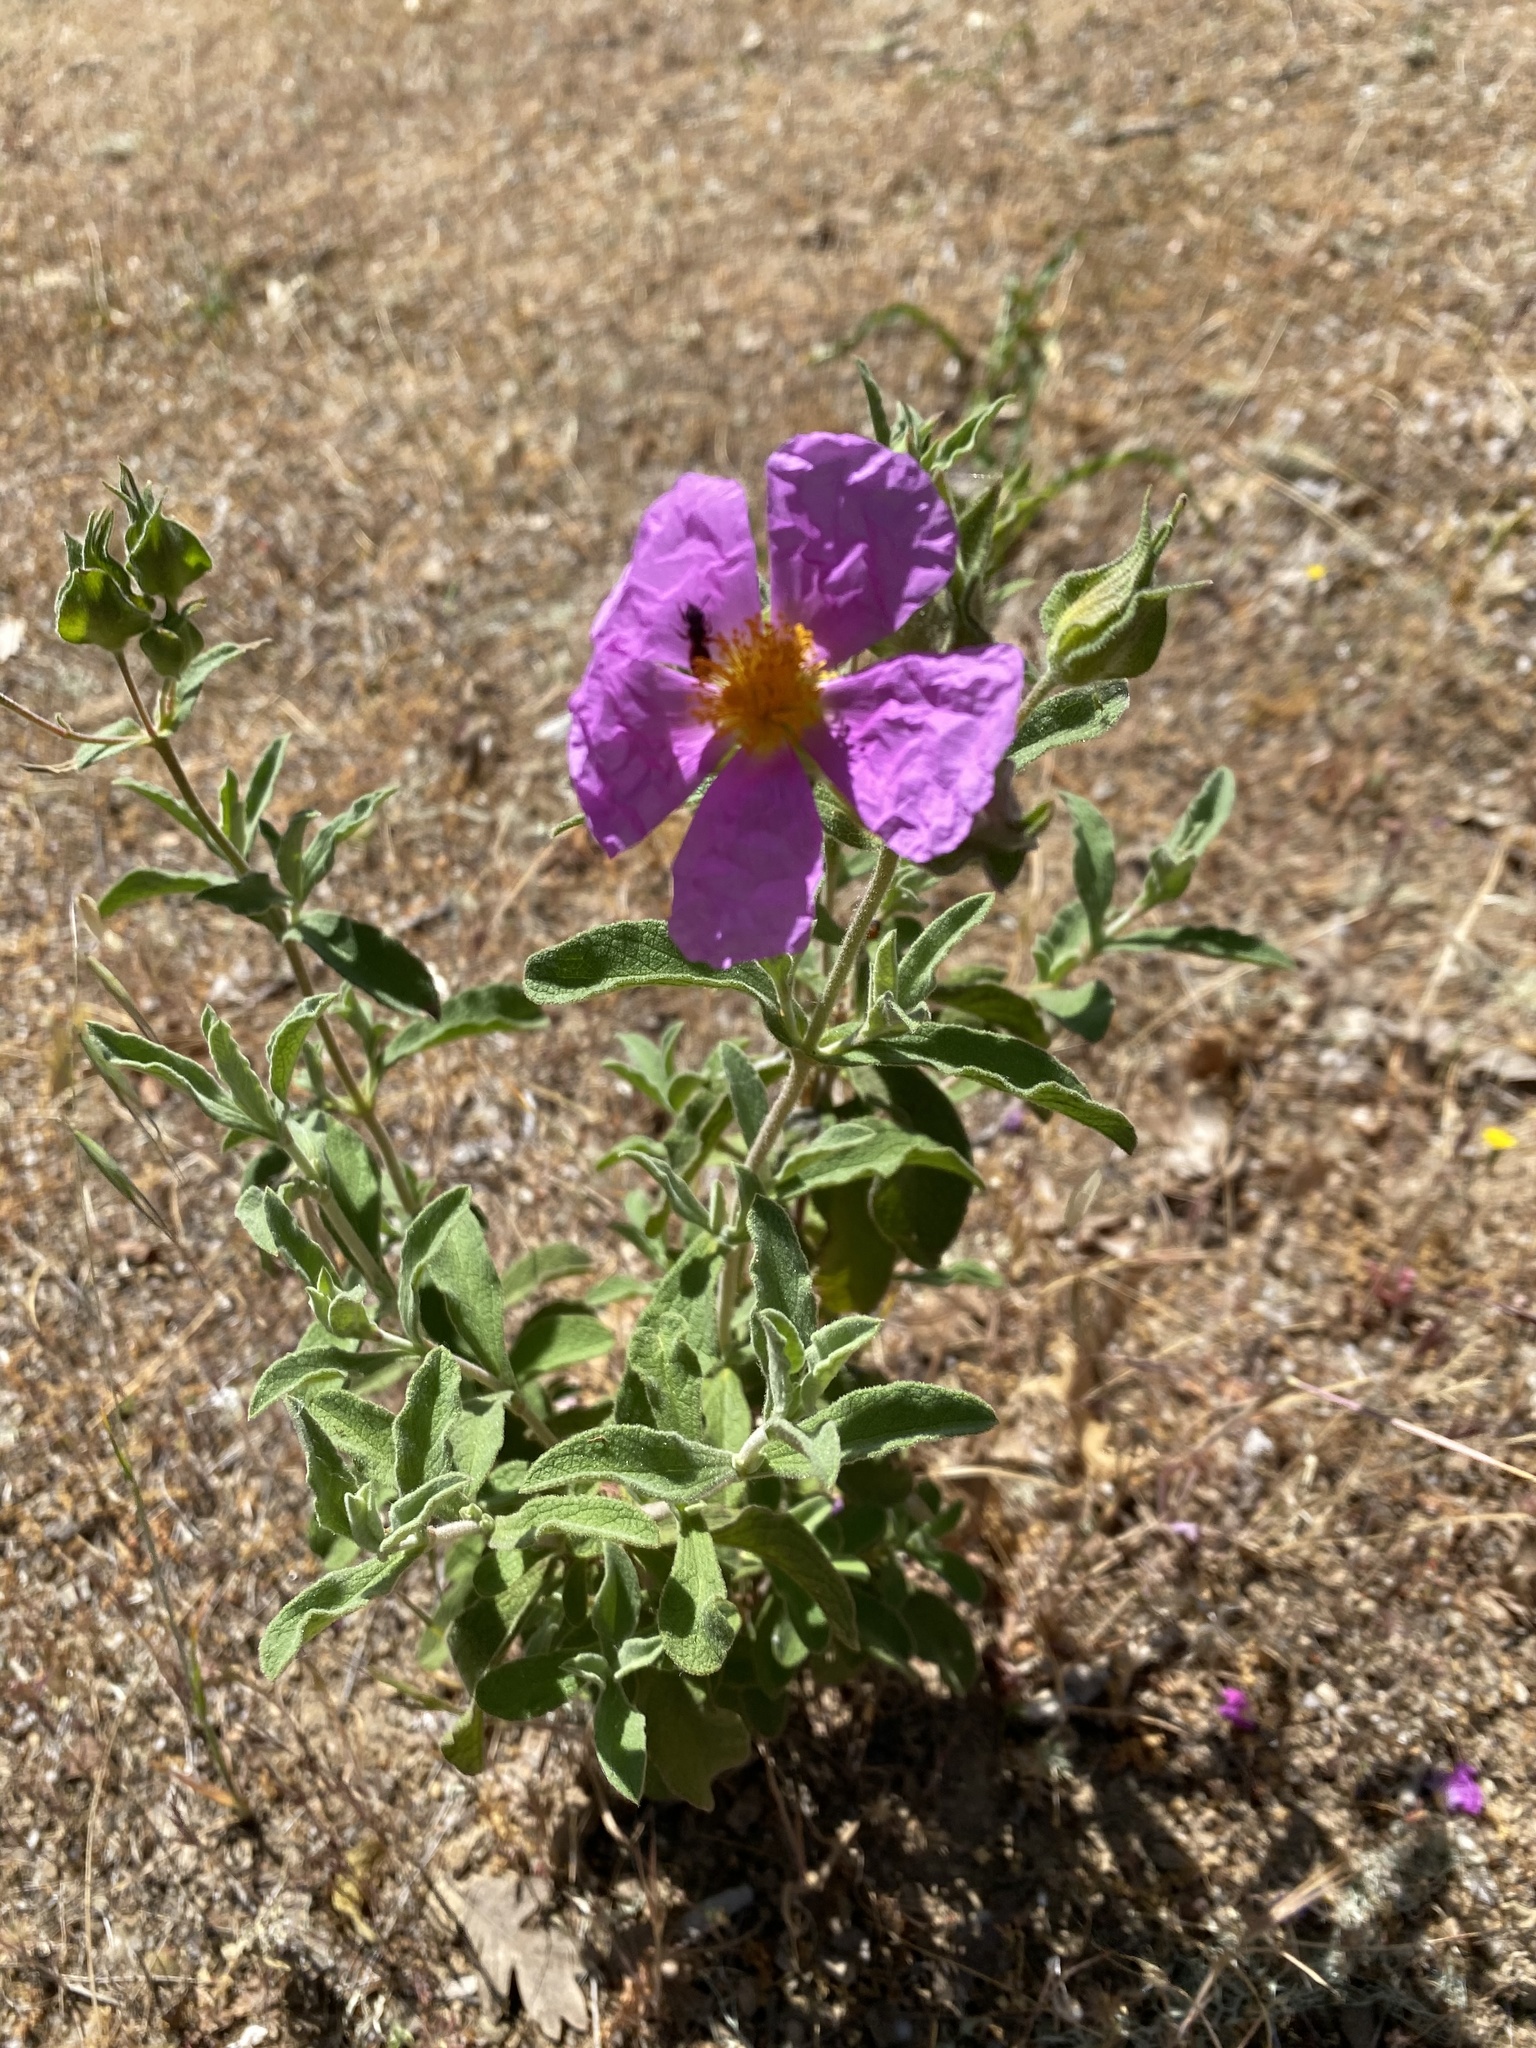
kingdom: Plantae
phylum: Tracheophyta
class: Magnoliopsida
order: Malvales
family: Cistaceae
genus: Cistus
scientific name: Cistus creticus
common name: Cretan rockrose
